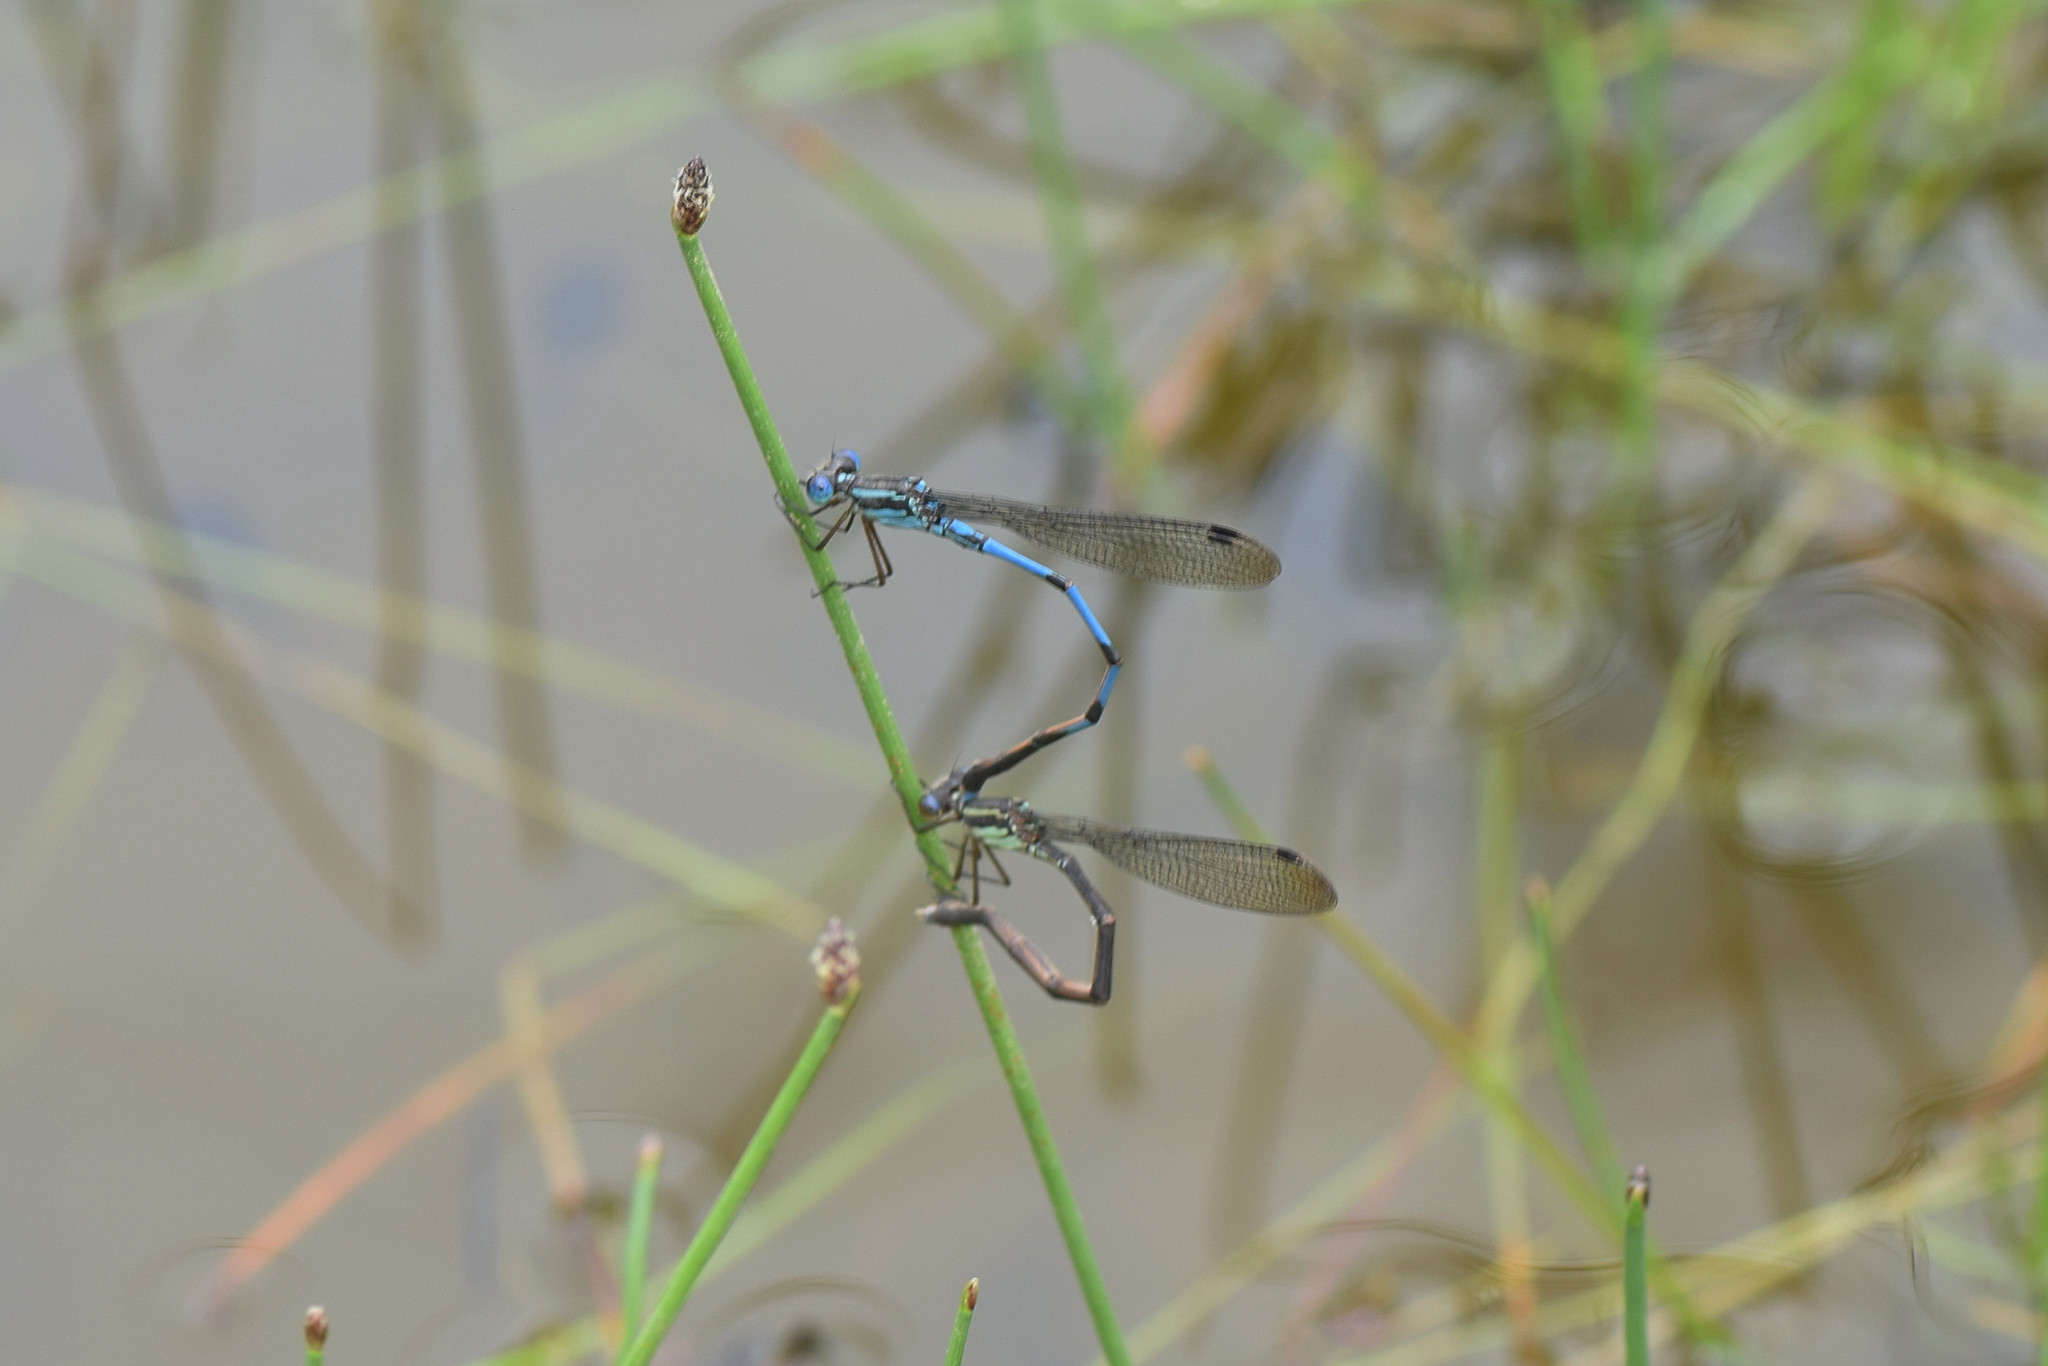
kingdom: Animalia
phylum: Arthropoda
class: Insecta
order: Odonata
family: Lestidae
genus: Indolestes
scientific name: Indolestes cyaneus
